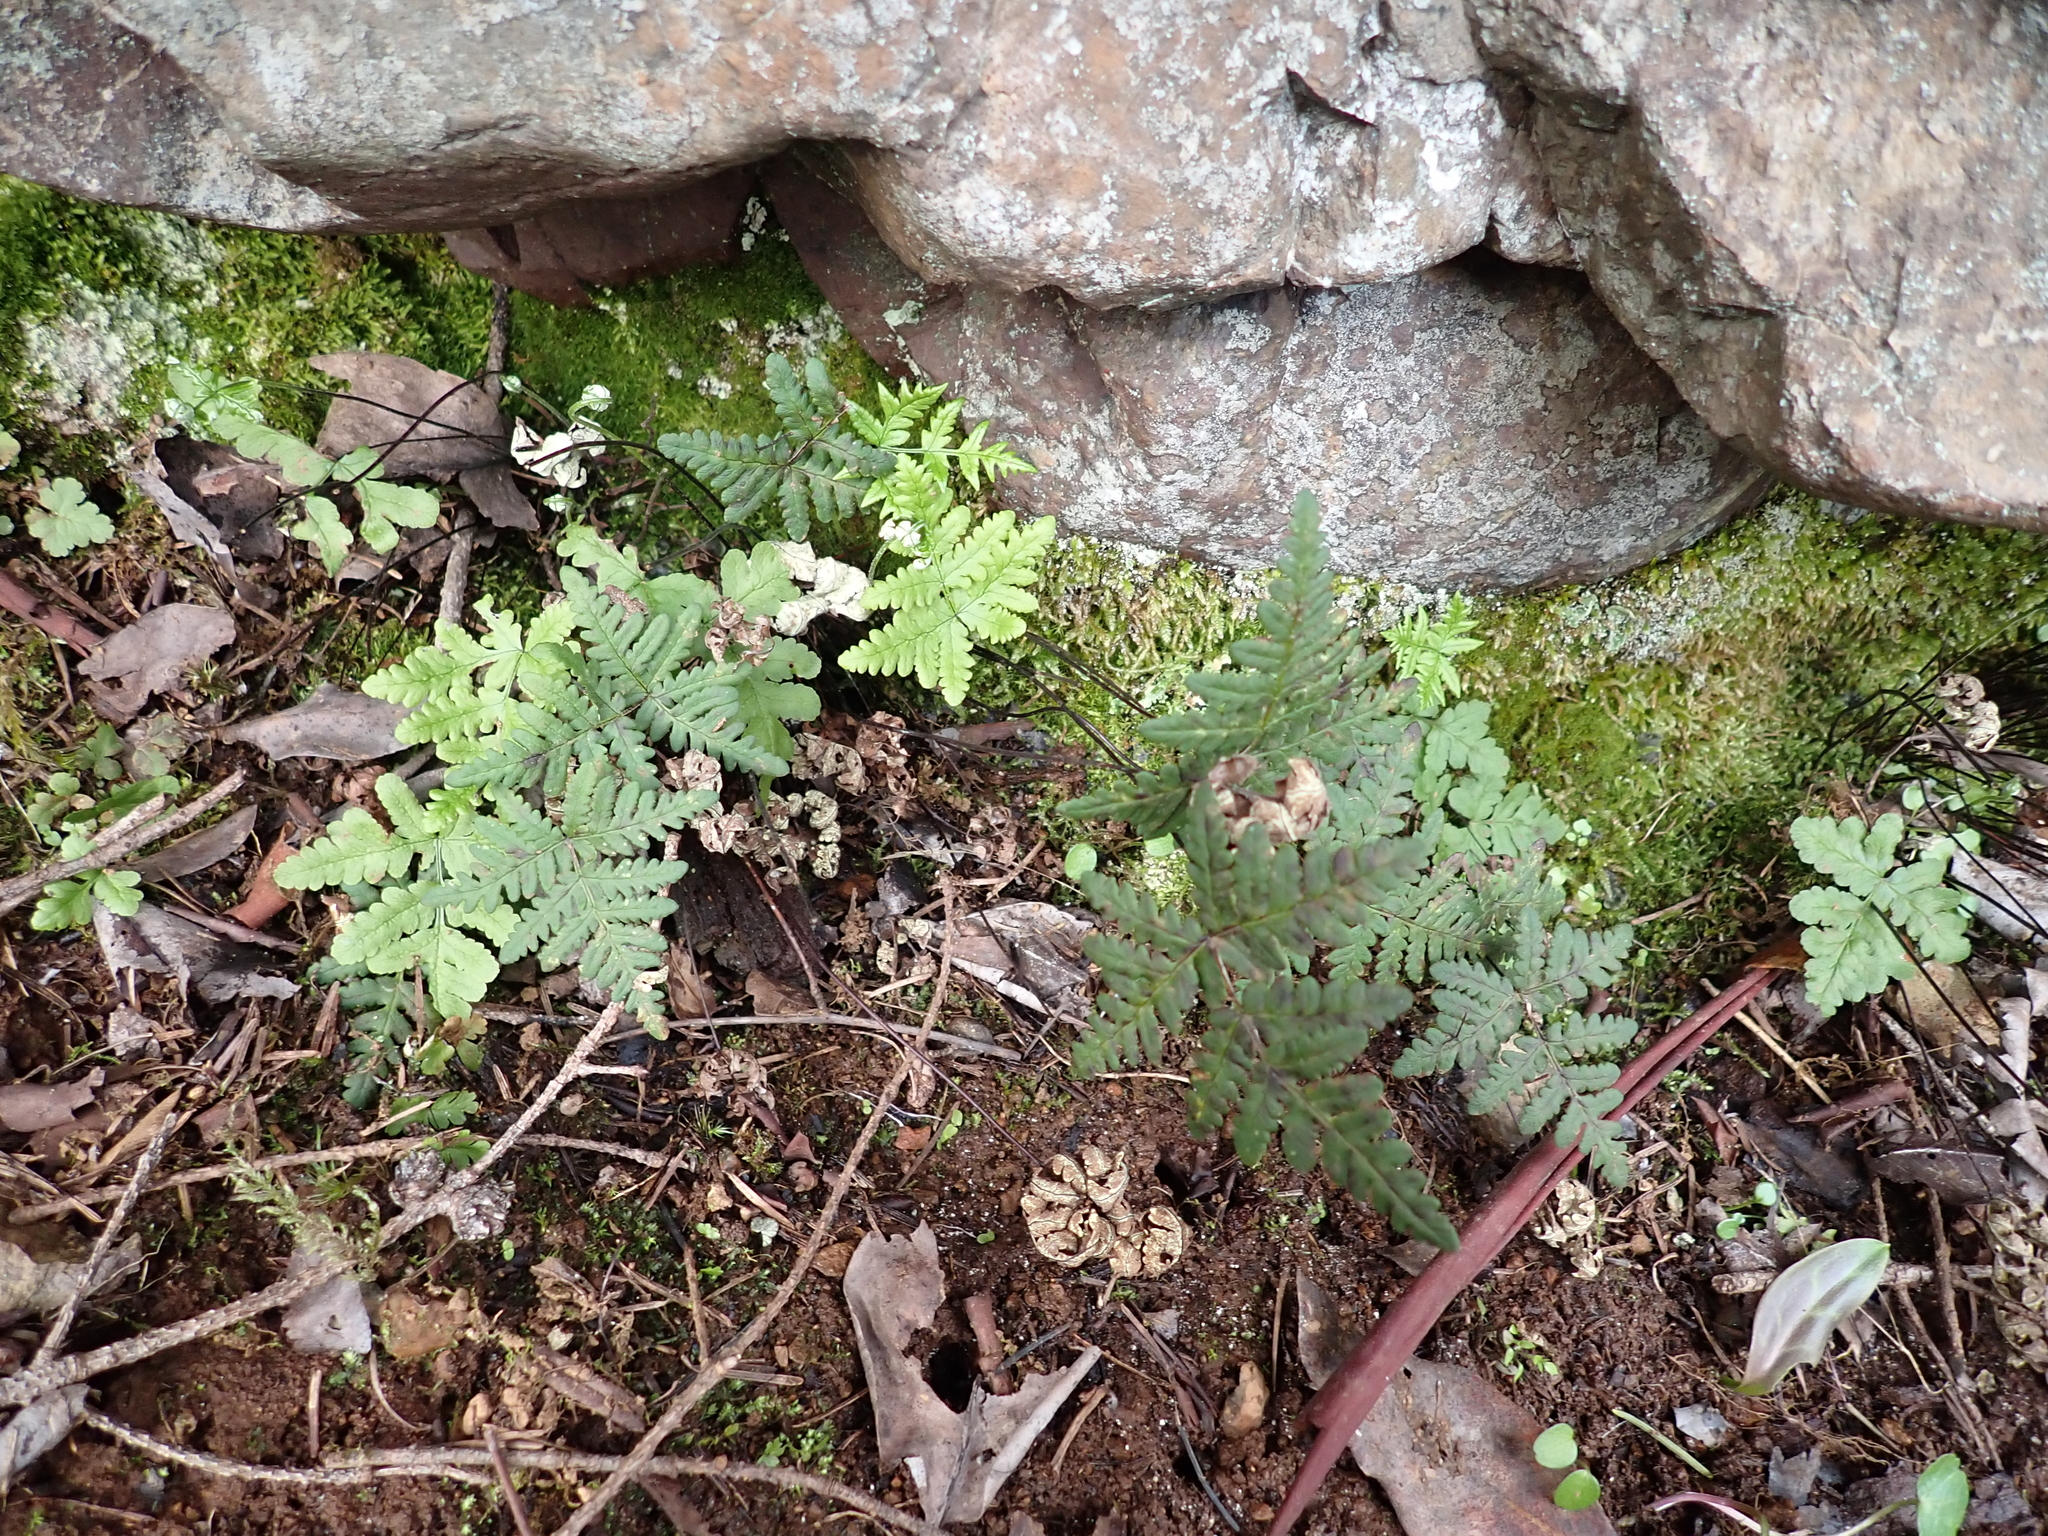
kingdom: Plantae
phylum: Tracheophyta
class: Polypodiopsida
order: Polypodiales
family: Pteridaceae
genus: Pentagramma
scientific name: Pentagramma triangularis
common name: Gold fern
